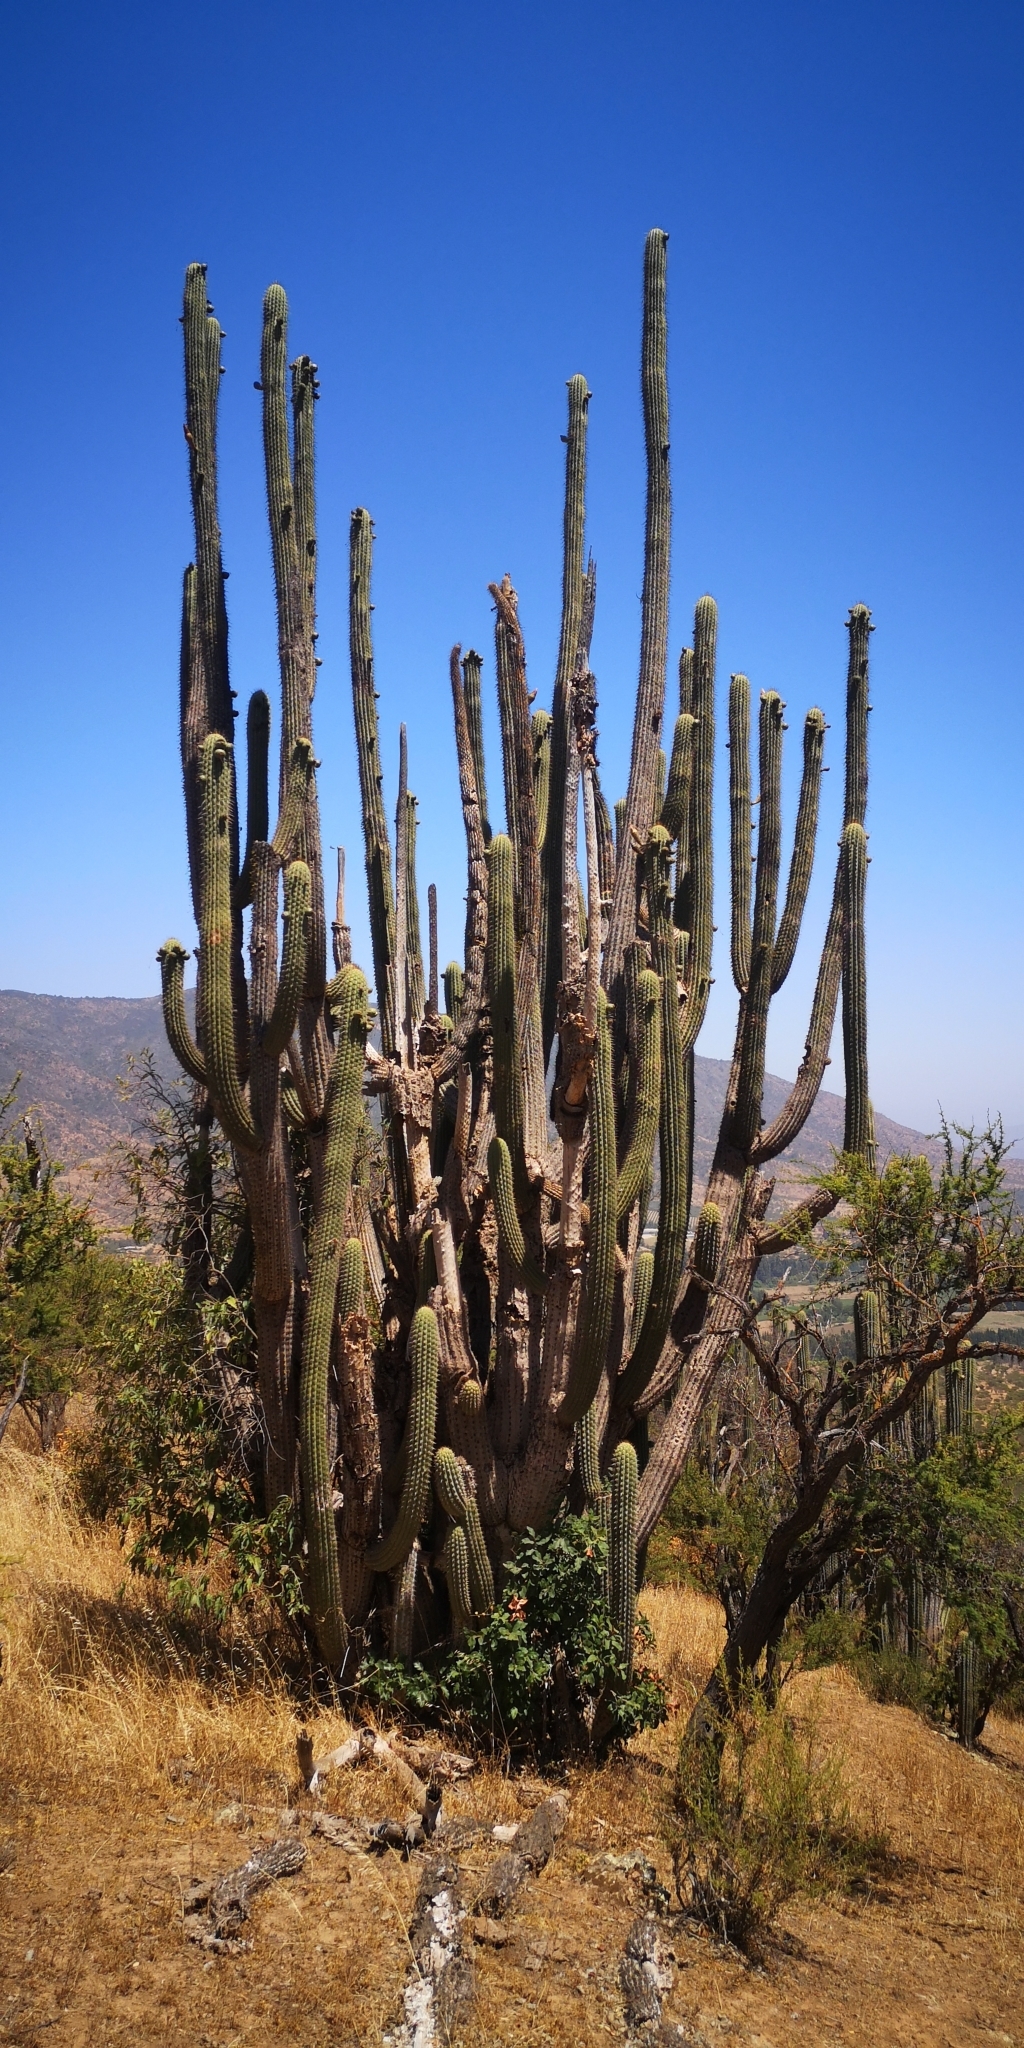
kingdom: Plantae
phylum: Tracheophyta
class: Magnoliopsida
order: Caryophyllales
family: Cactaceae
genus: Leucostele
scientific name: Leucostele chiloensis
